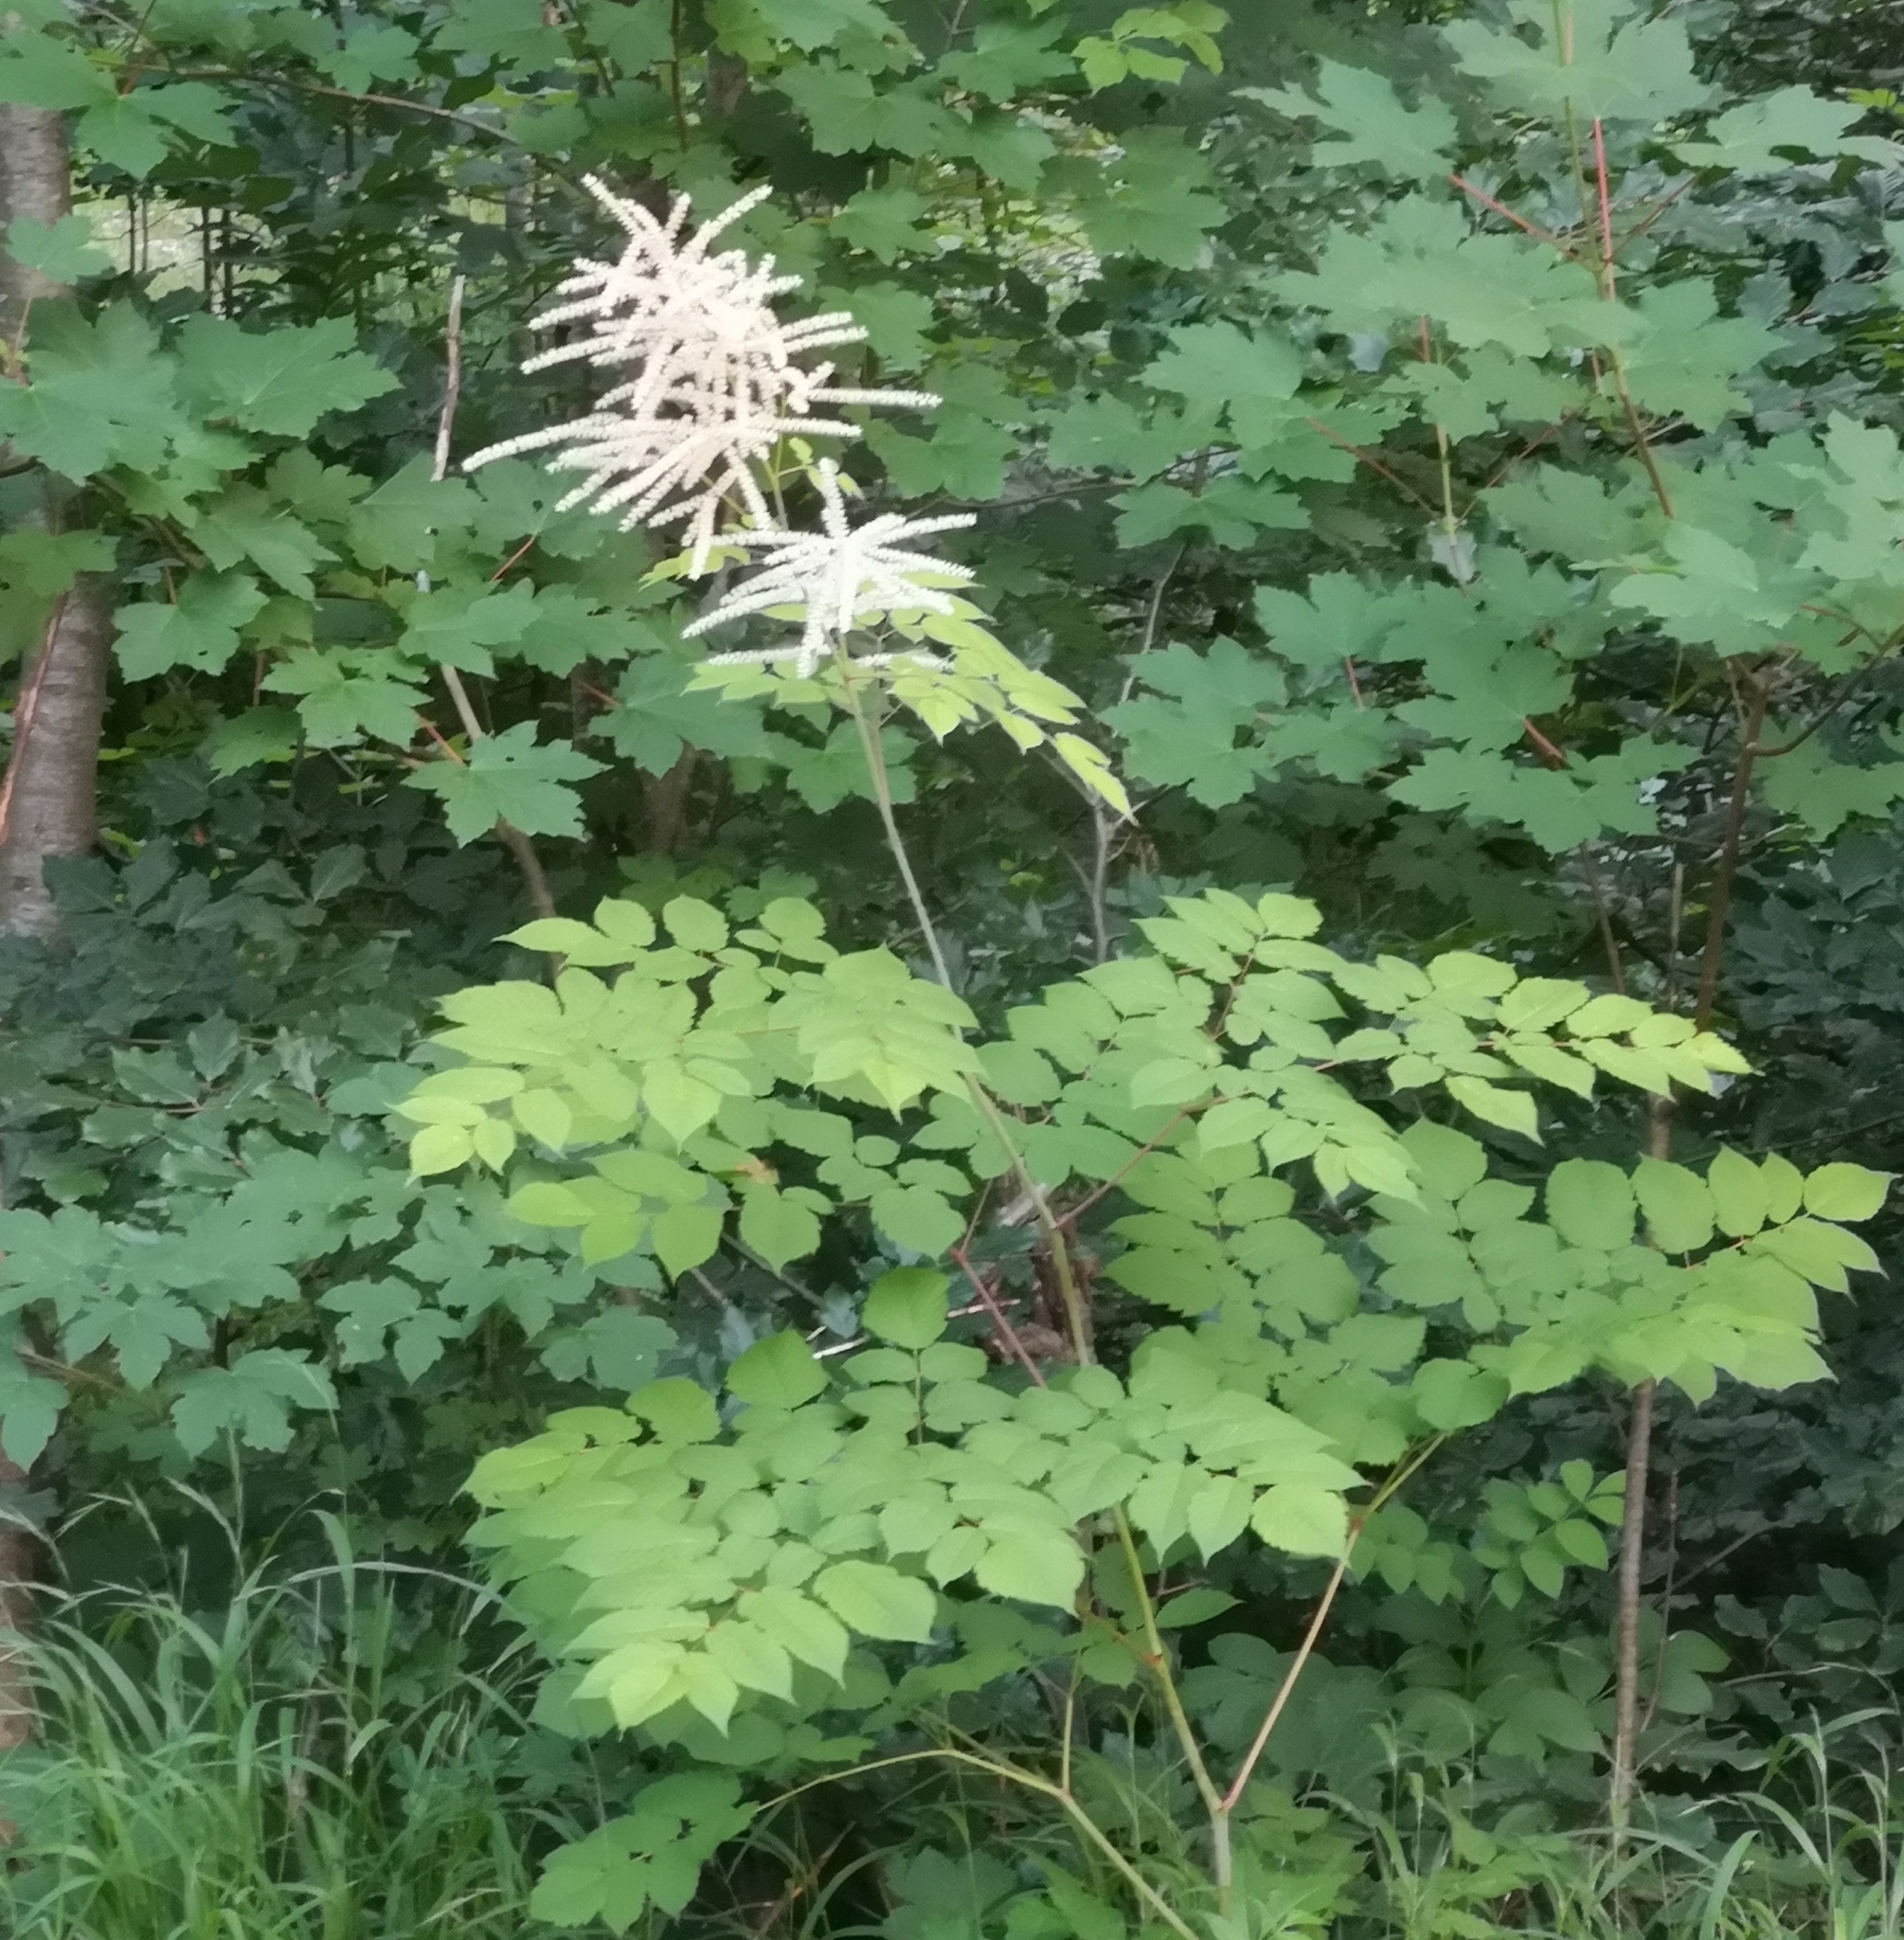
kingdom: Plantae
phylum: Tracheophyta
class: Magnoliopsida
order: Rosales
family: Rosaceae
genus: Aruncus
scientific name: Aruncus dioicus
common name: Buck's-beard
